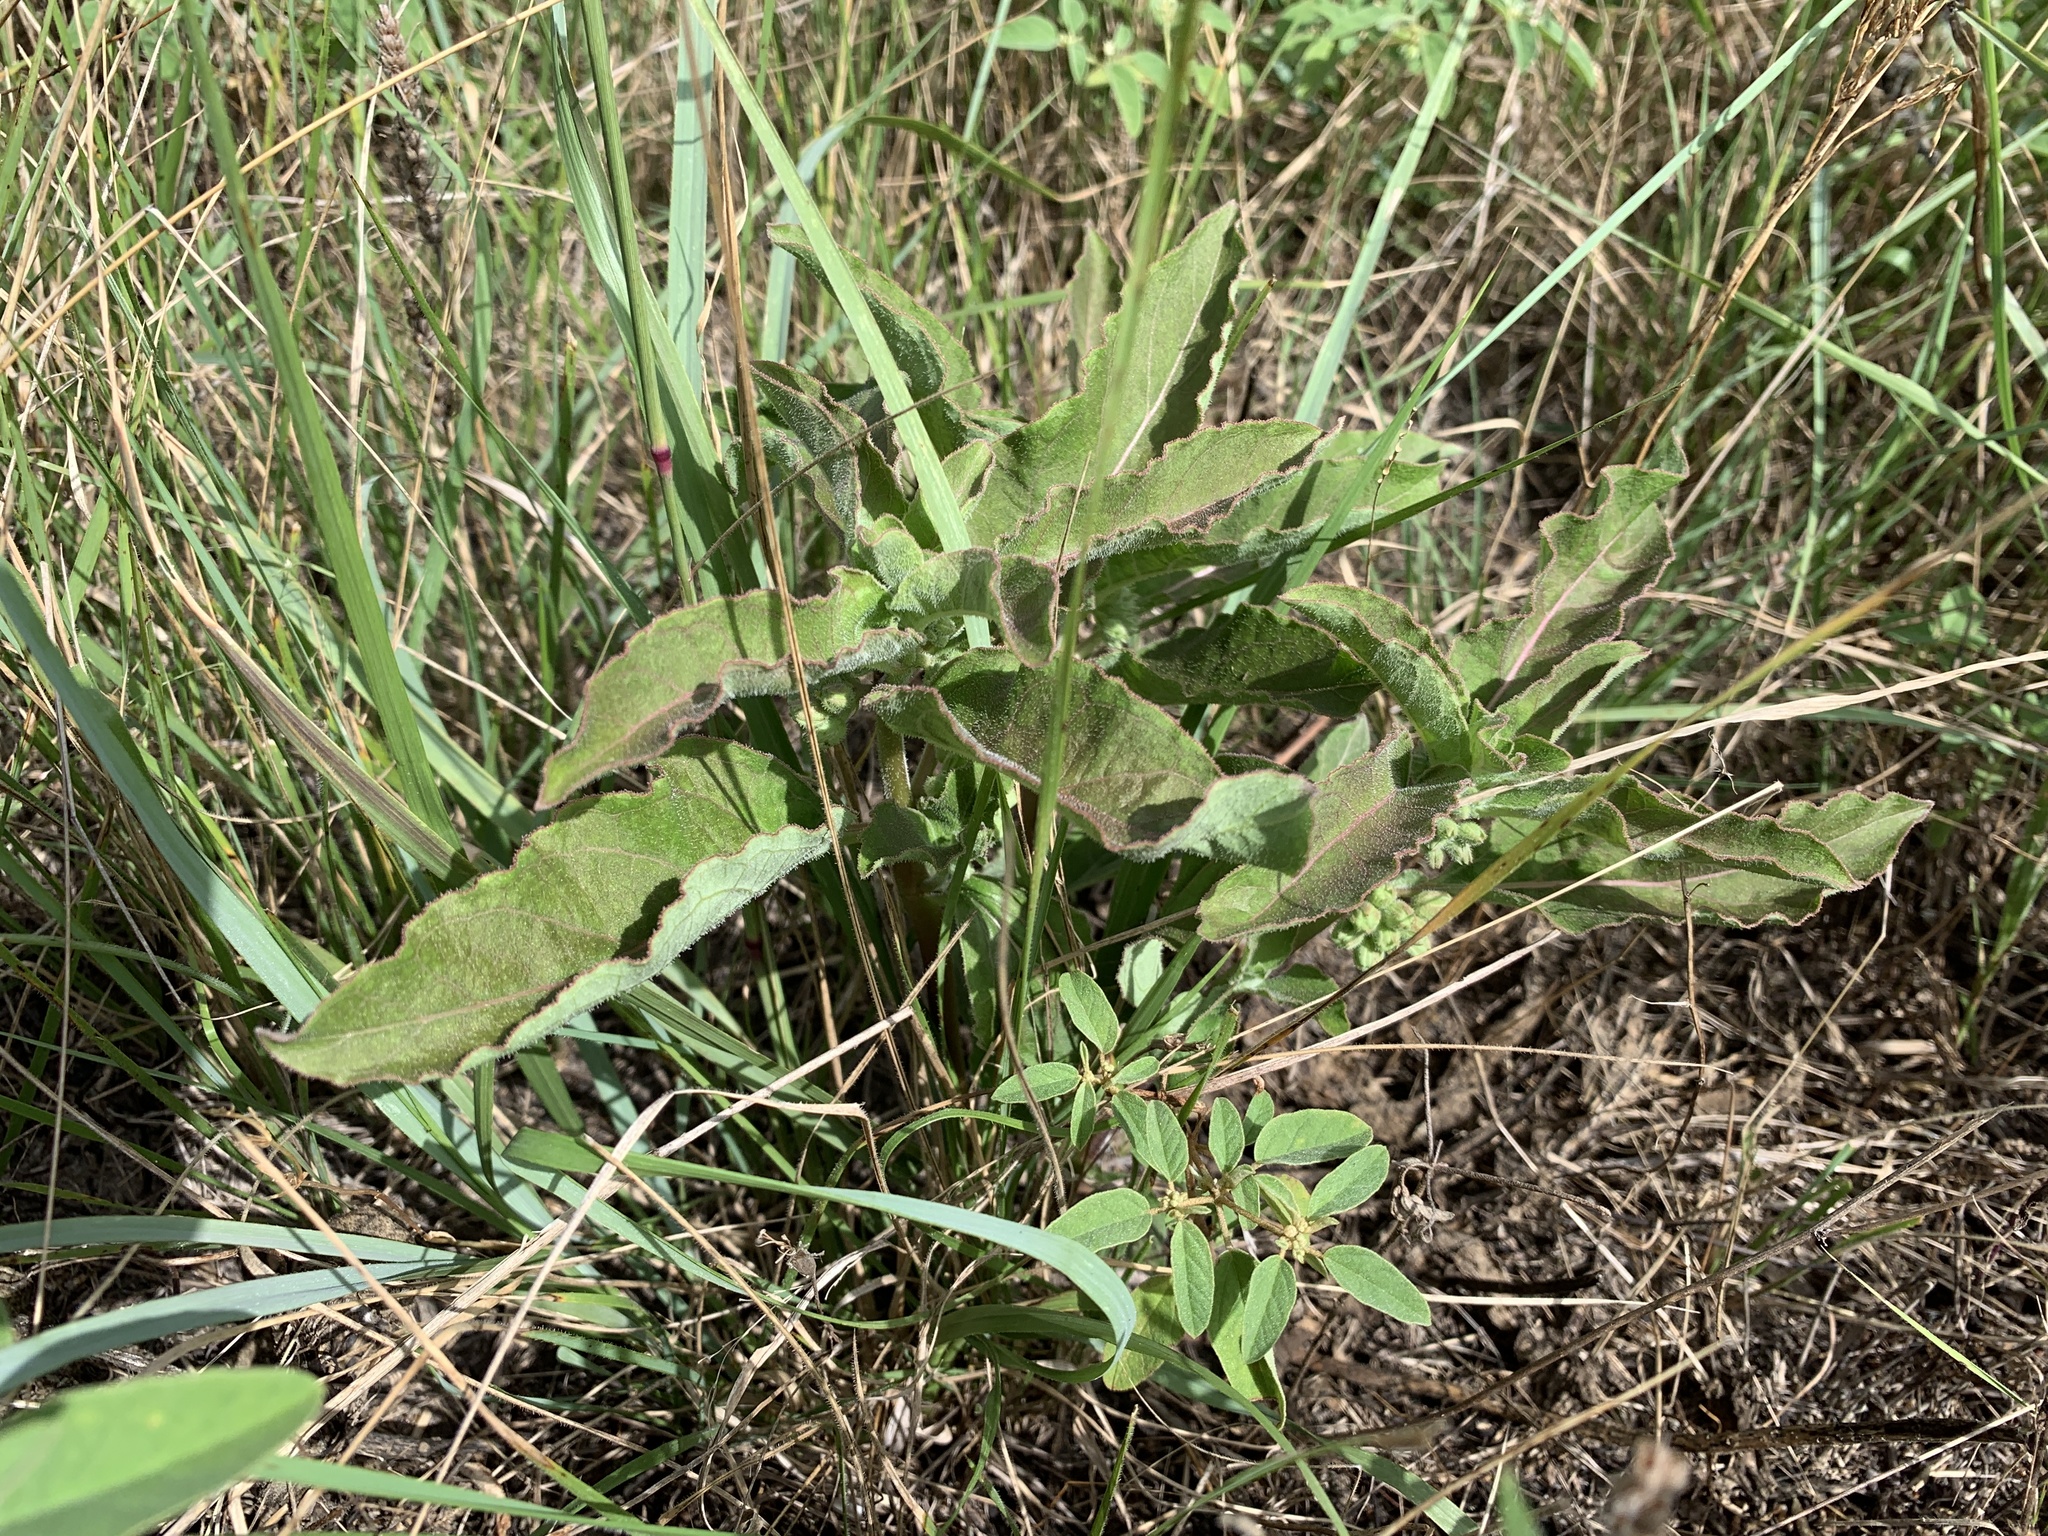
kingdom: Plantae
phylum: Tracheophyta
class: Magnoliopsida
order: Gentianales
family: Apocynaceae
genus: Asclepias
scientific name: Asclepias oenotheroides
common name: Zizotes milkweed
